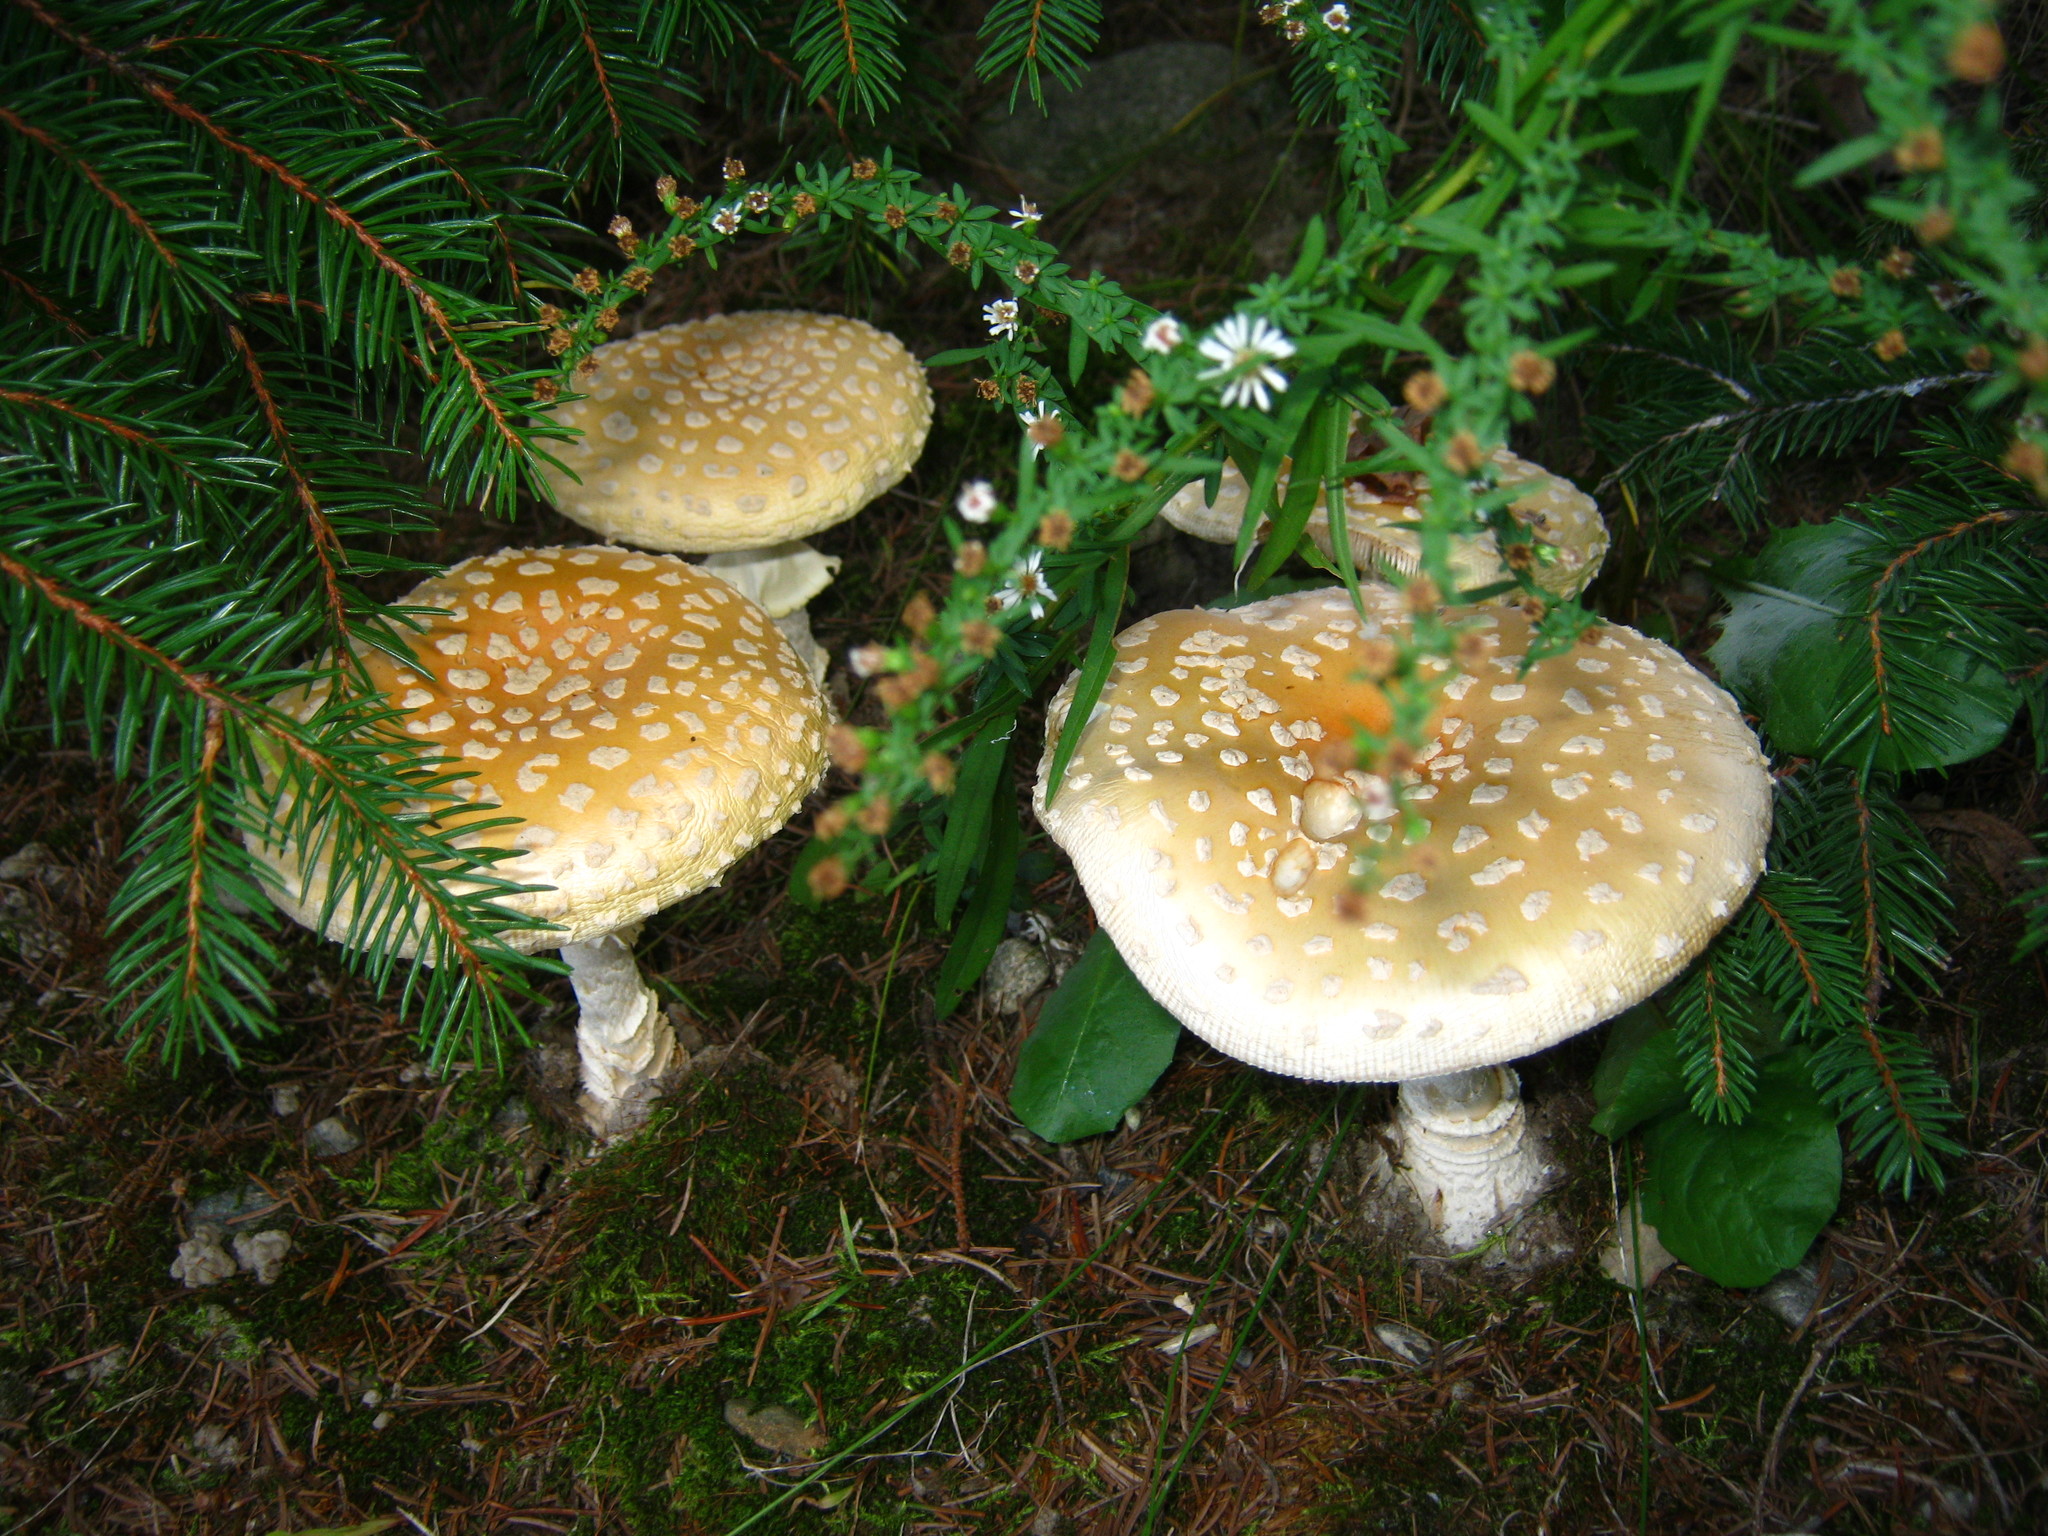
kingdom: Fungi
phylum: Basidiomycota
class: Agaricomycetes
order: Agaricales
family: Amanitaceae
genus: Amanita
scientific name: Amanita muscaria
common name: Fly agaric
